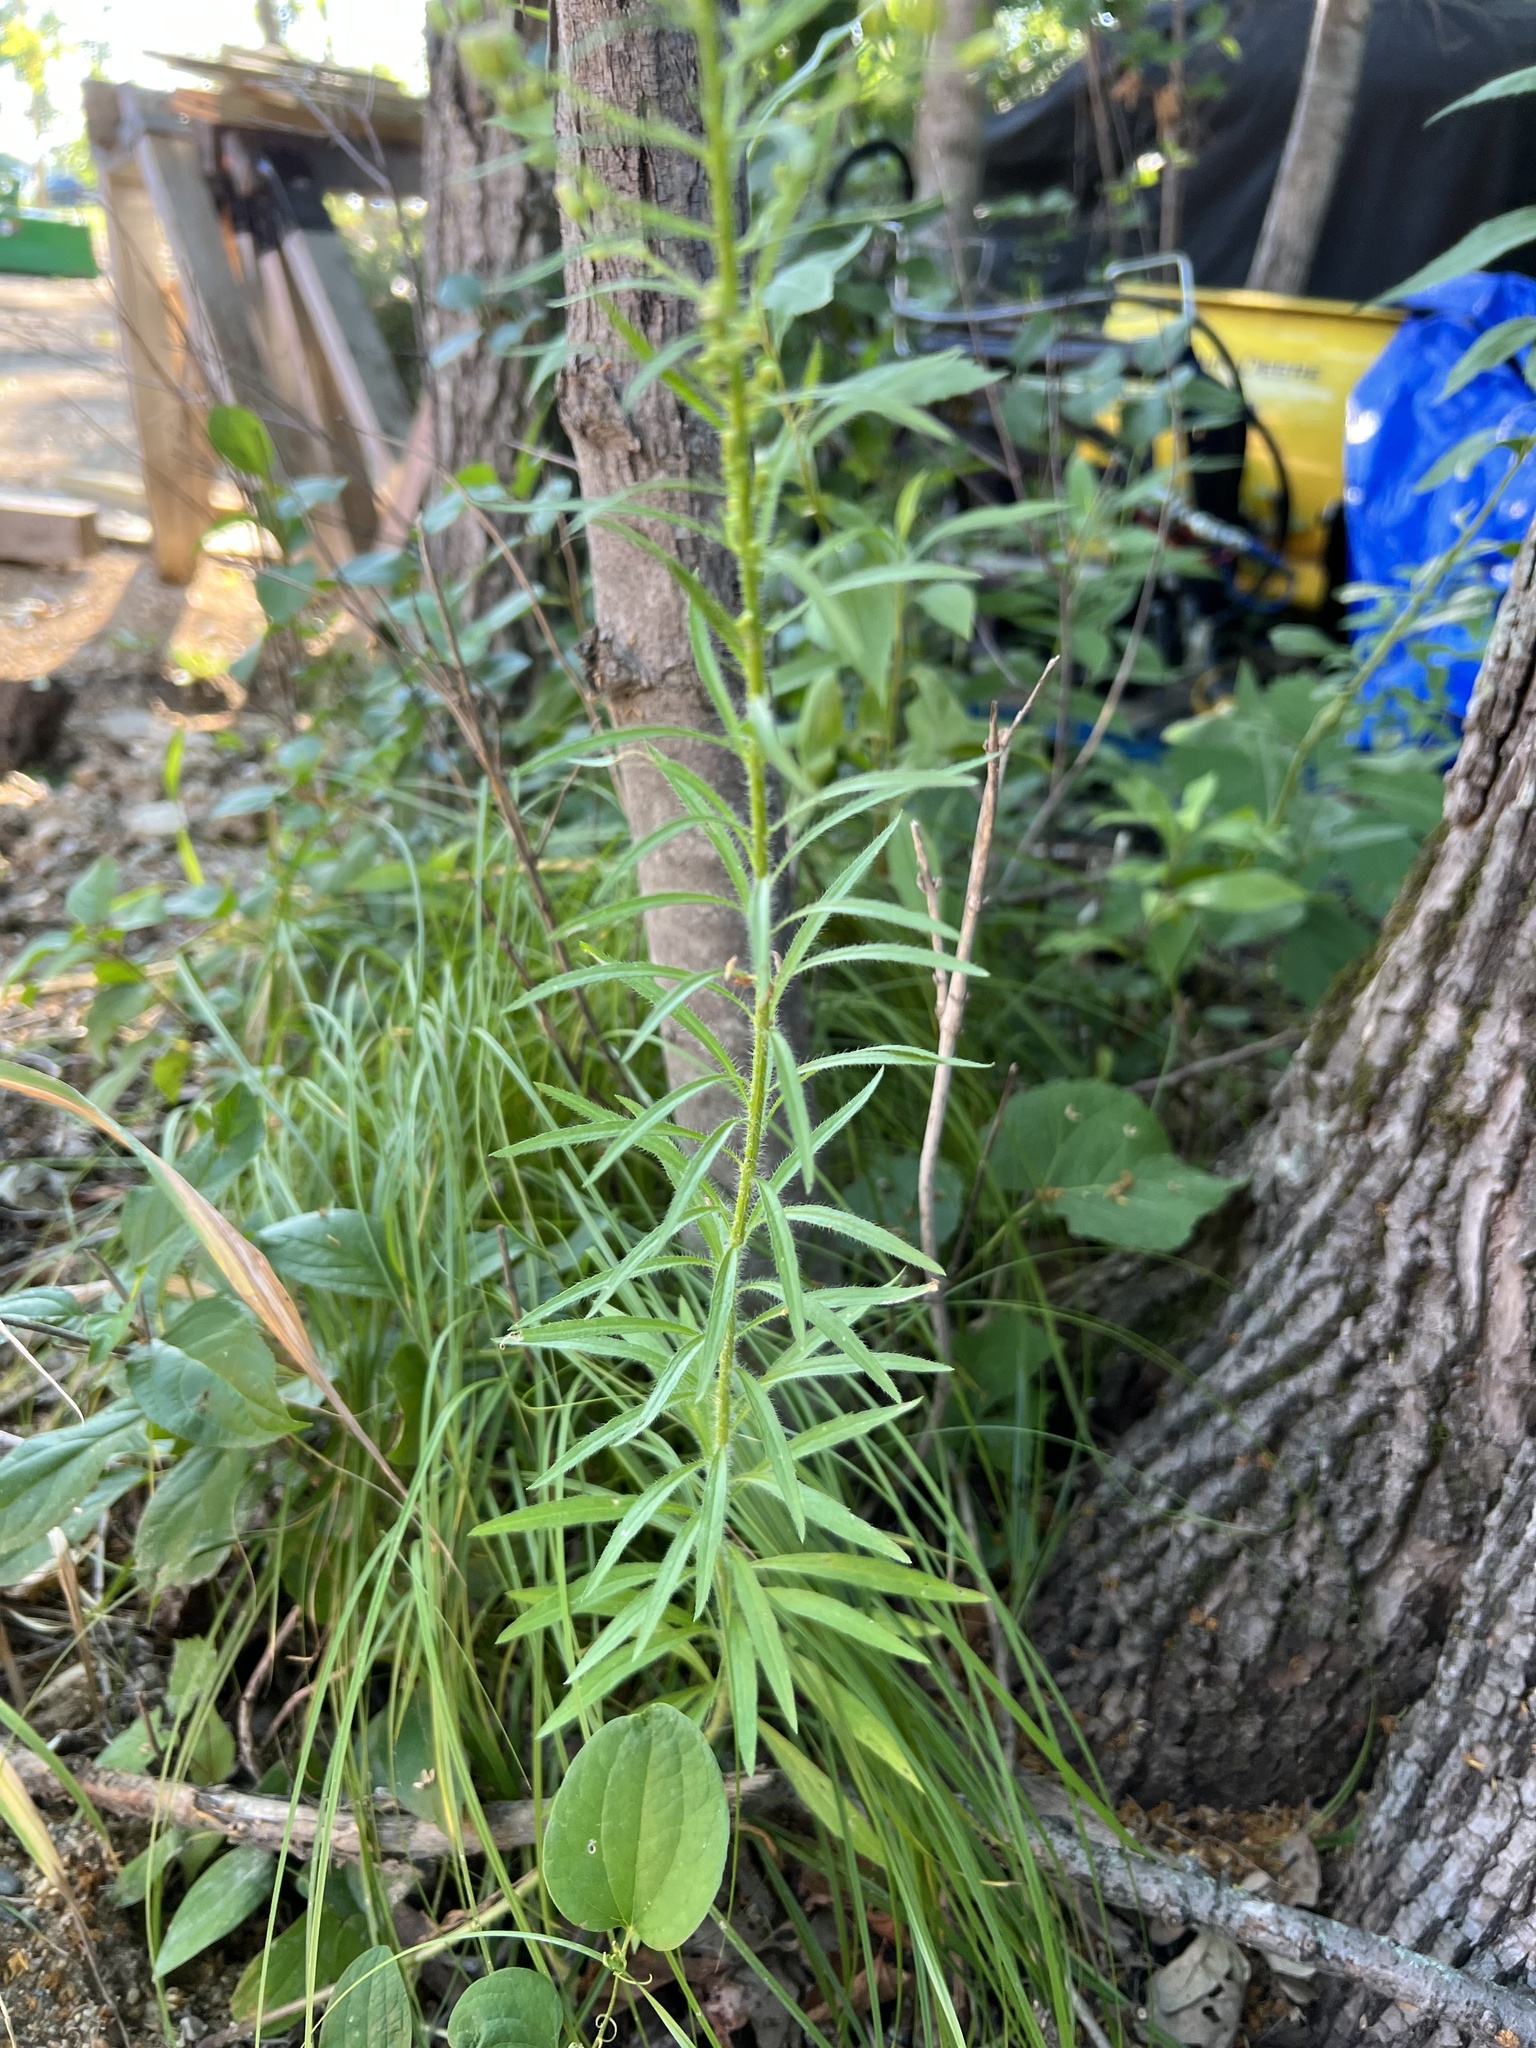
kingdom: Plantae
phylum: Tracheophyta
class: Magnoliopsida
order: Asterales
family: Asteraceae
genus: Erigeron
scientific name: Erigeron canadensis
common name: Canadian fleabane
